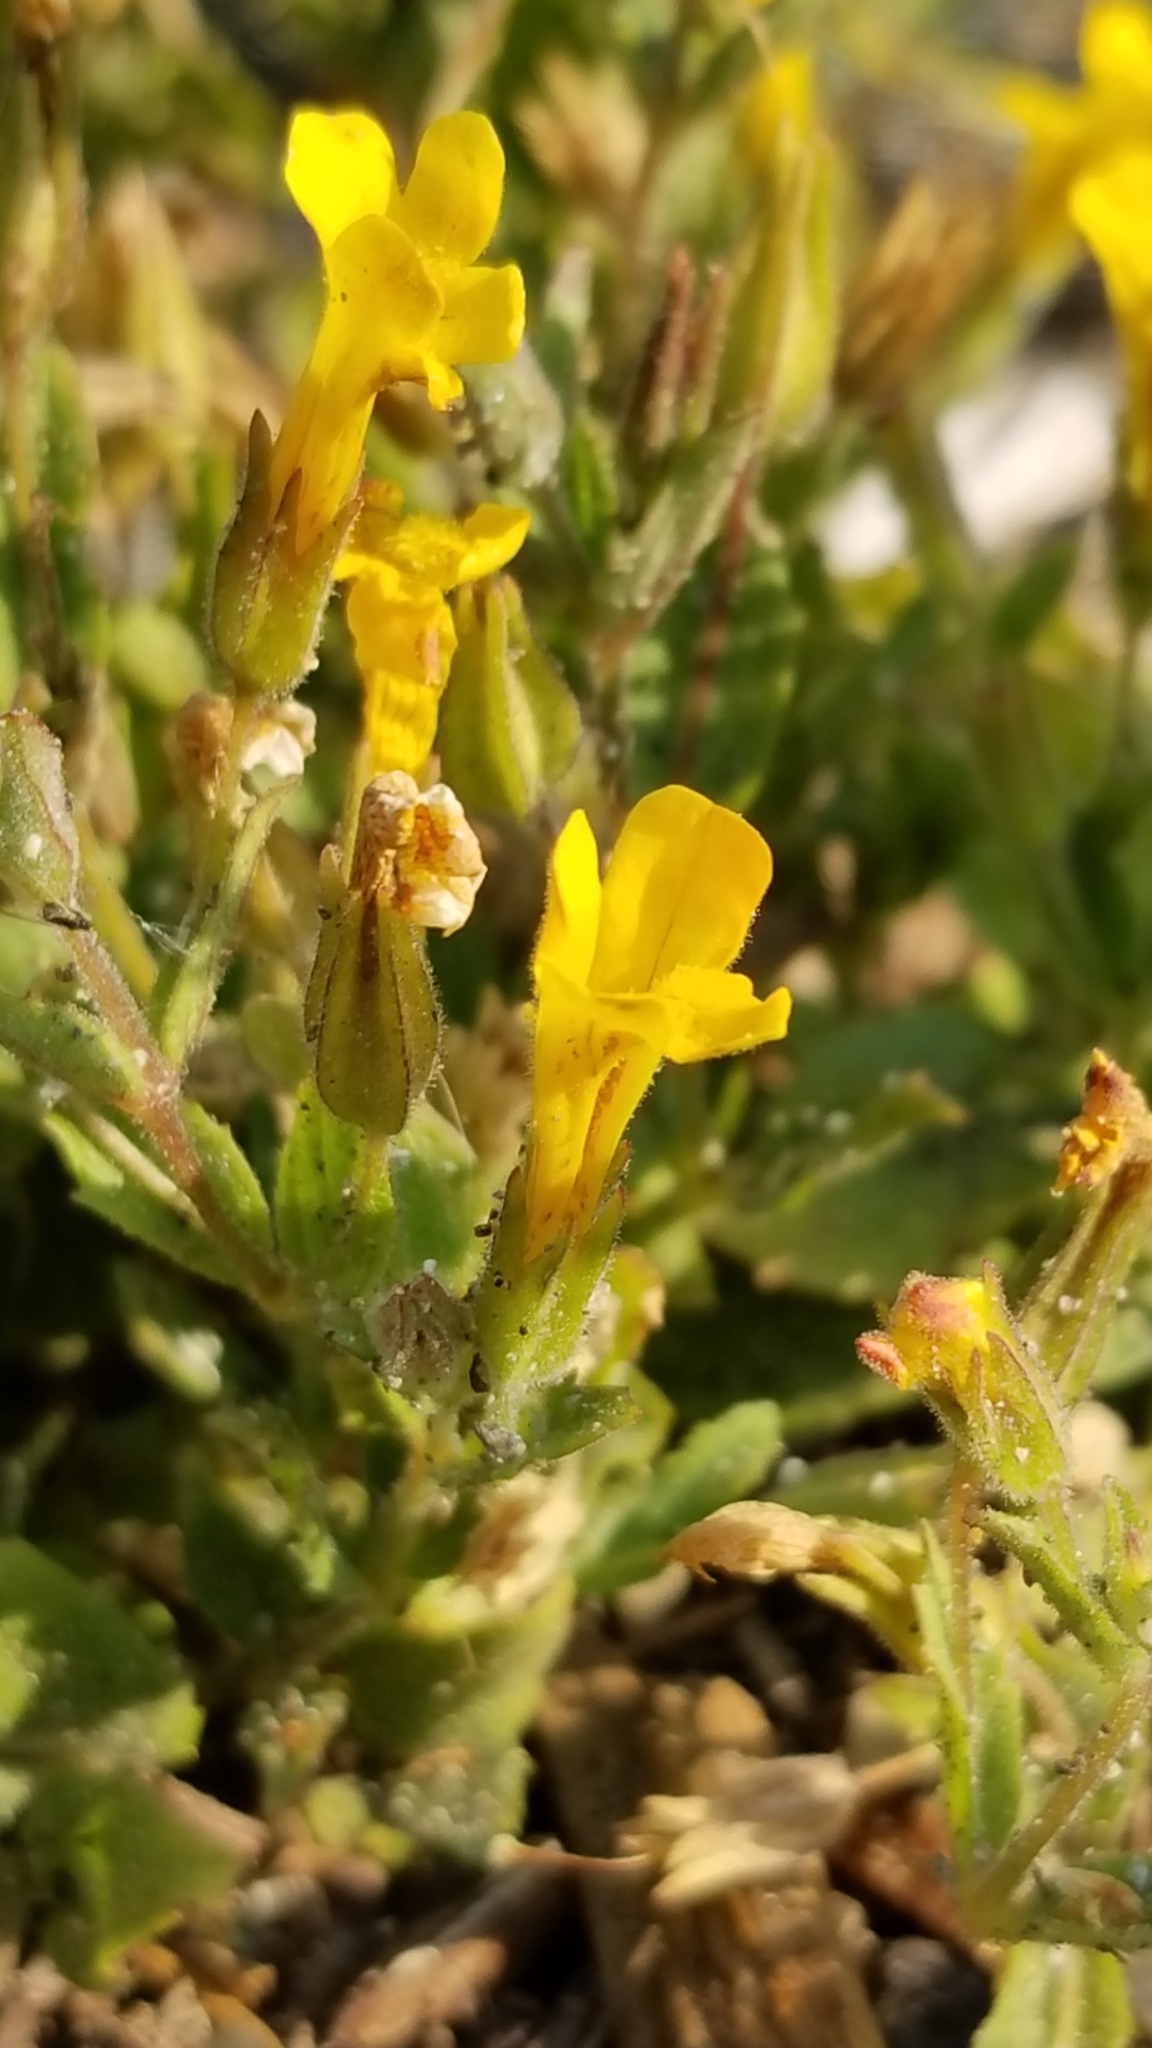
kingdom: Plantae
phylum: Tracheophyta
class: Magnoliopsida
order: Lamiales
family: Phrymaceae
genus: Erythranthe
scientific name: Erythranthe moschata
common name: Muskflower
